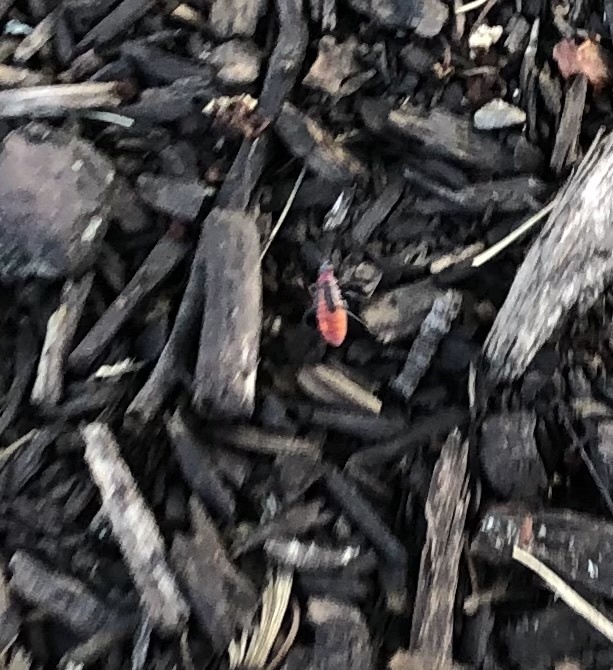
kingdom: Animalia
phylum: Arthropoda
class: Insecta
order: Hemiptera
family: Rhopalidae
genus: Boisea
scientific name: Boisea trivittata
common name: Boxelder bug
